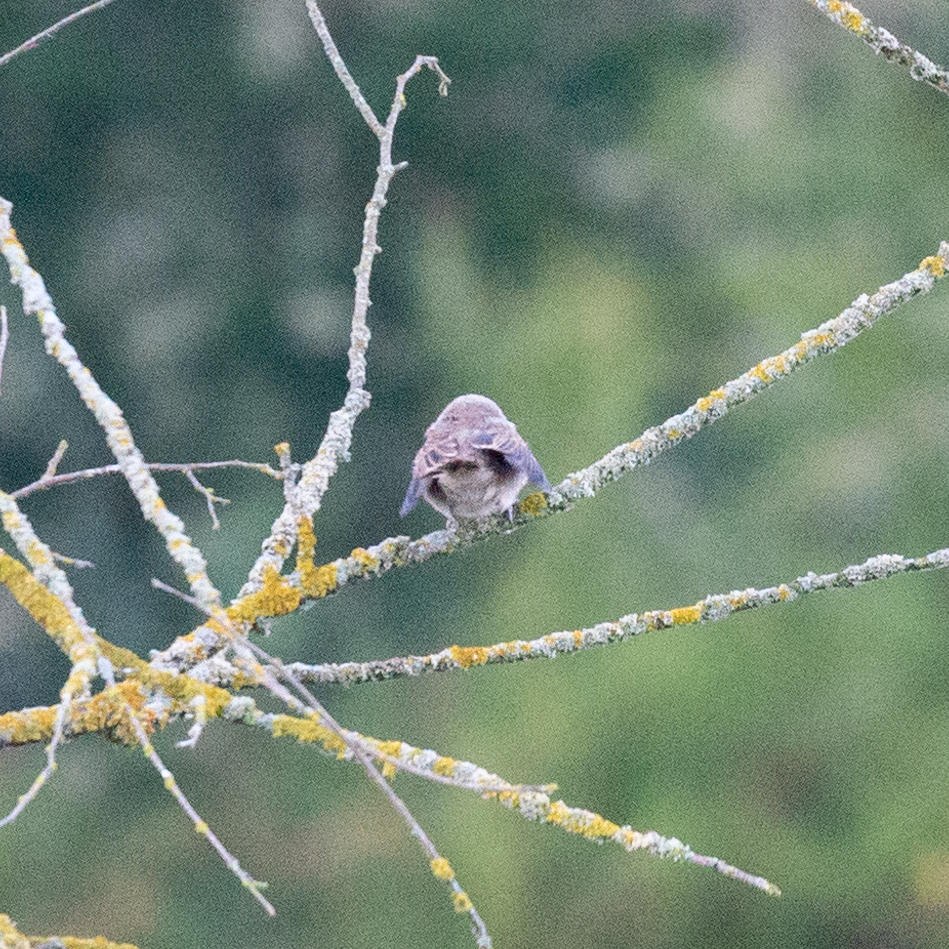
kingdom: Animalia
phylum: Chordata
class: Aves
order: Passeriformes
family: Laniidae
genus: Lanius
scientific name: Lanius collurio
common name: Red-backed shrike
